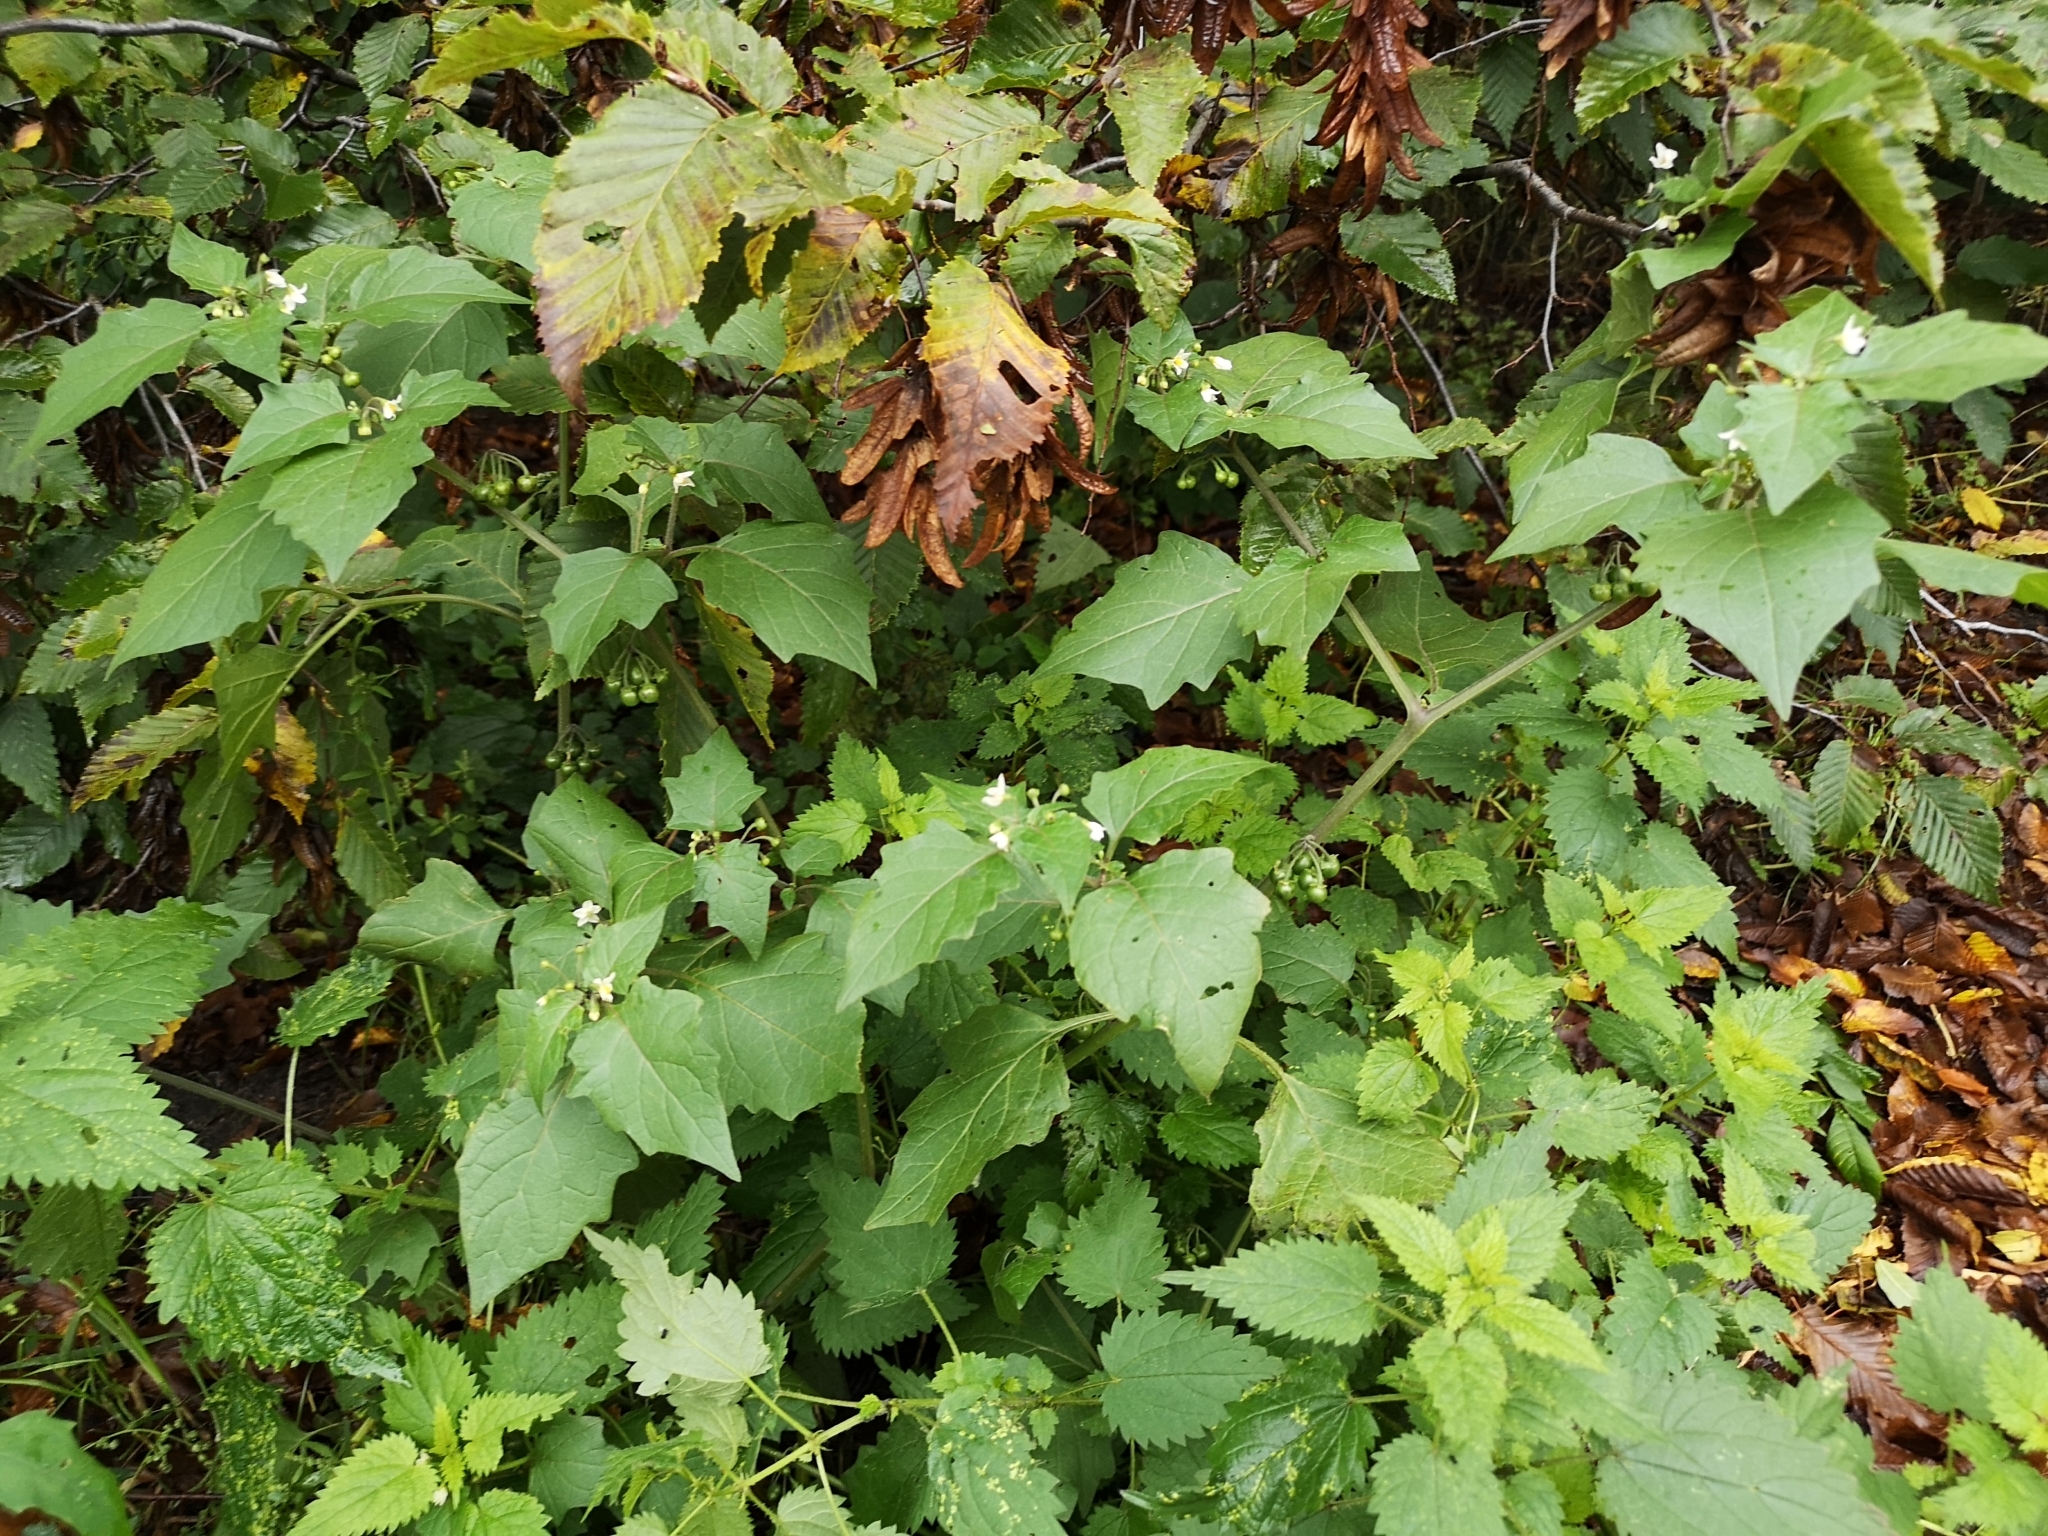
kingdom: Plantae
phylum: Tracheophyta
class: Magnoliopsida
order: Solanales
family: Solanaceae
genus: Solanum
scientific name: Solanum nigrum
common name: Black nightshade
